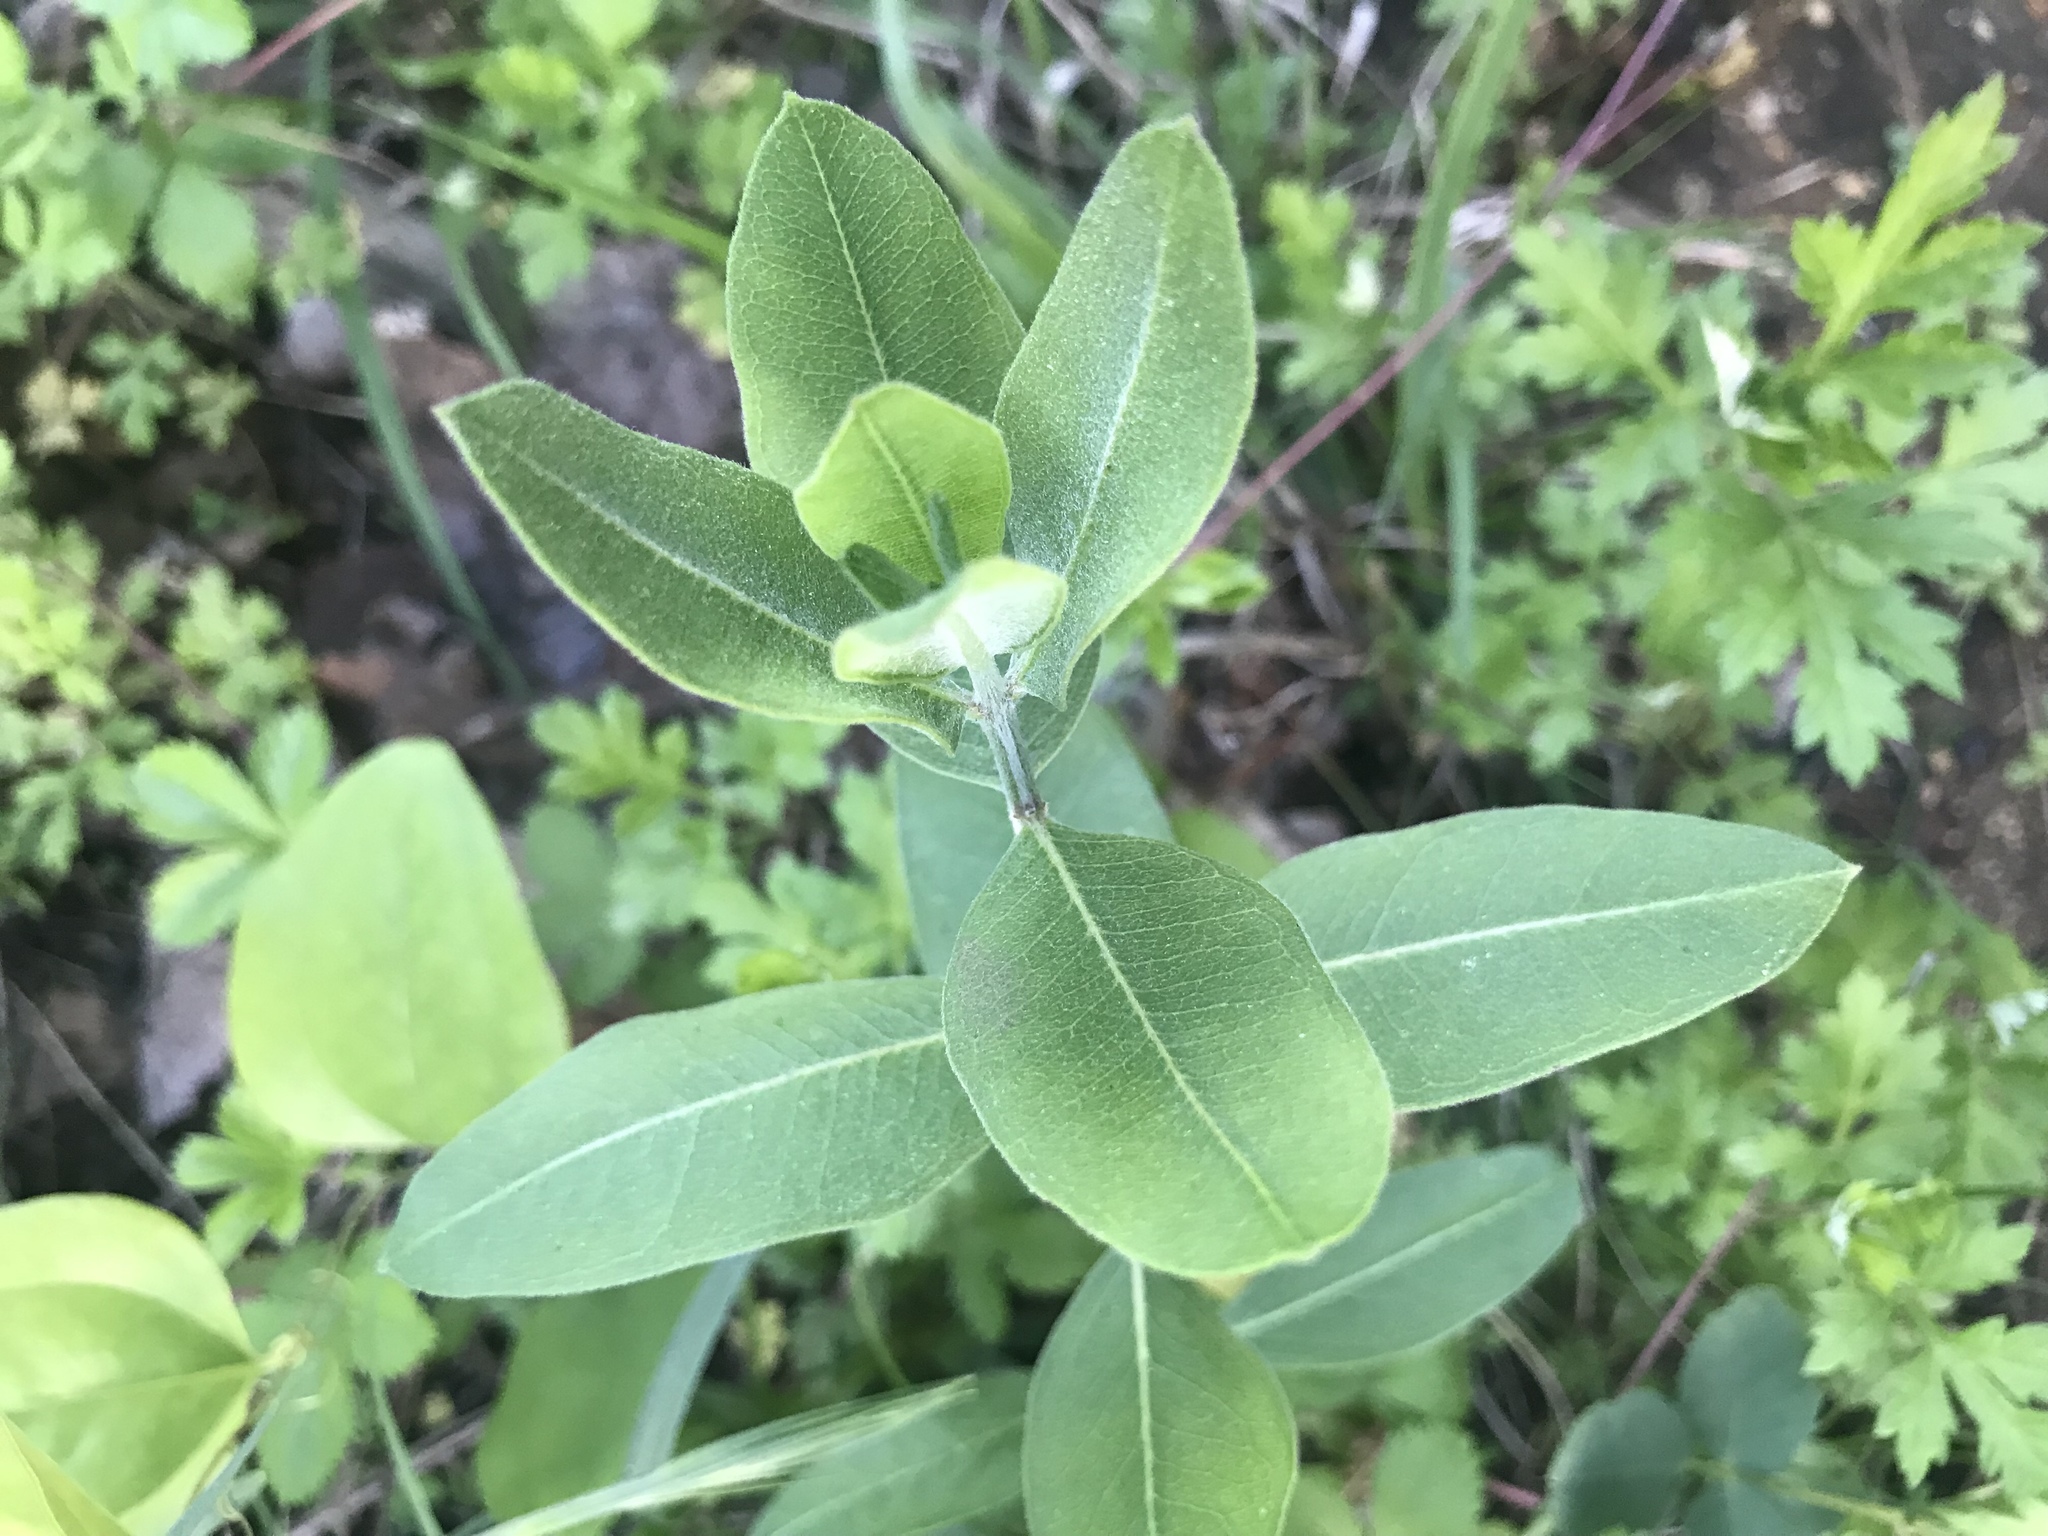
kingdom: Plantae
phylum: Tracheophyta
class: Magnoliopsida
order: Gentianales
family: Apocynaceae
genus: Asclepias
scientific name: Asclepias viridiflora
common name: Green comet milkweed
